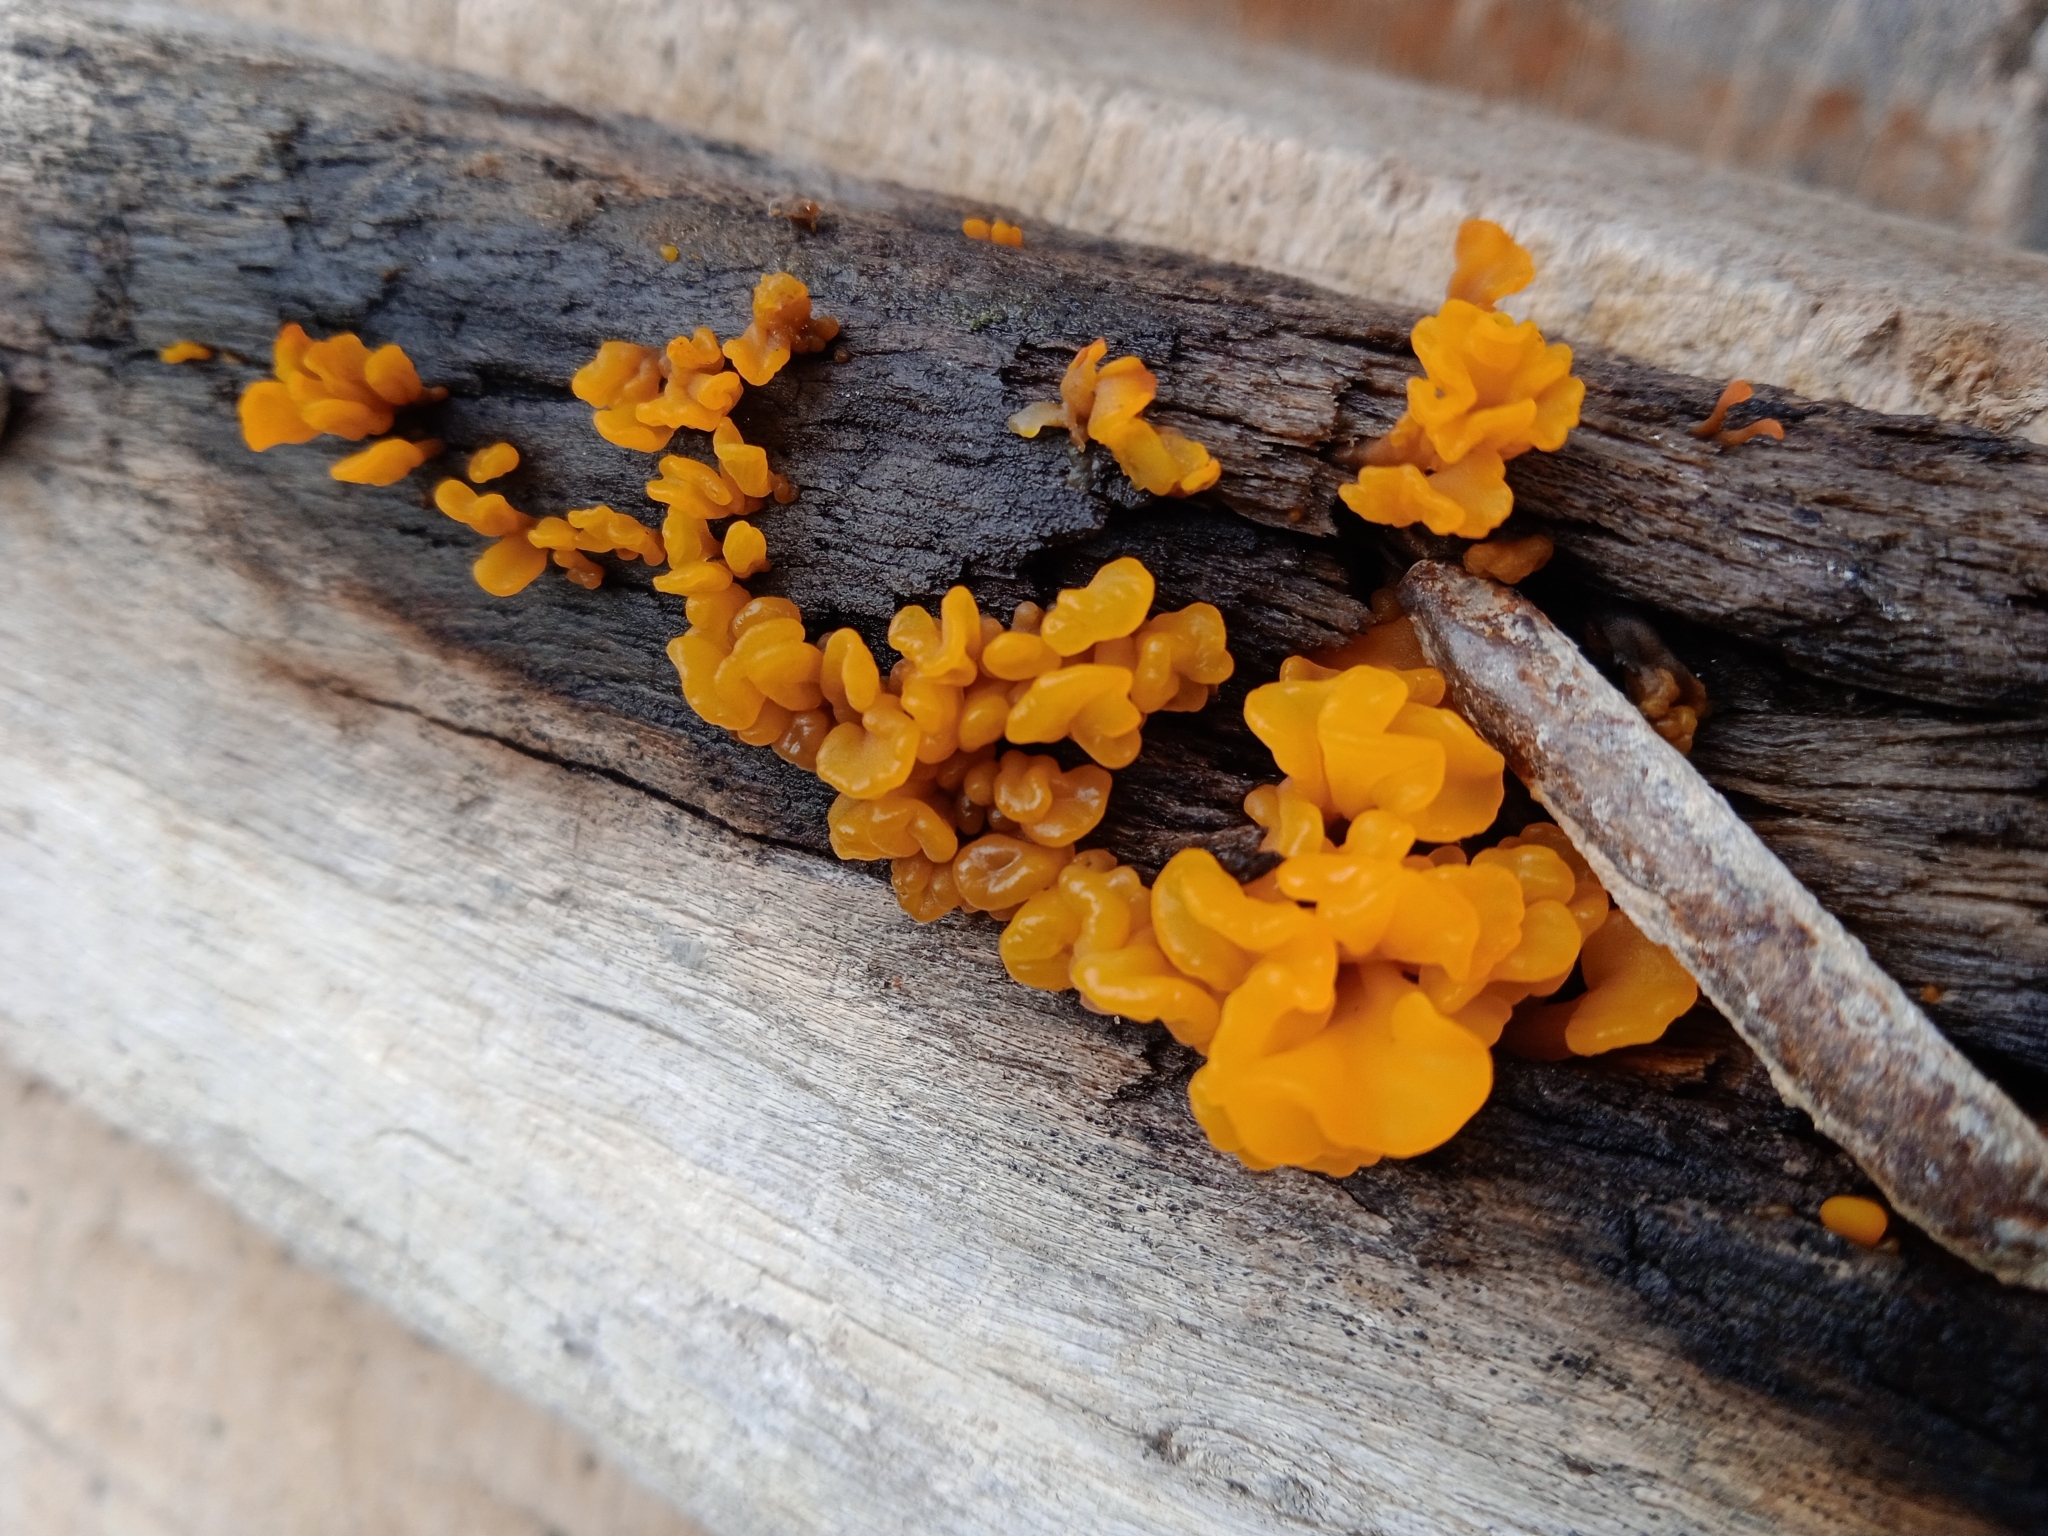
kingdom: Fungi
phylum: Basidiomycota
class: Dacrymycetes
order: Dacrymycetales
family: Dacrymycetaceae
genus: Dacrymyces
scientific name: Dacrymyces spathularius
